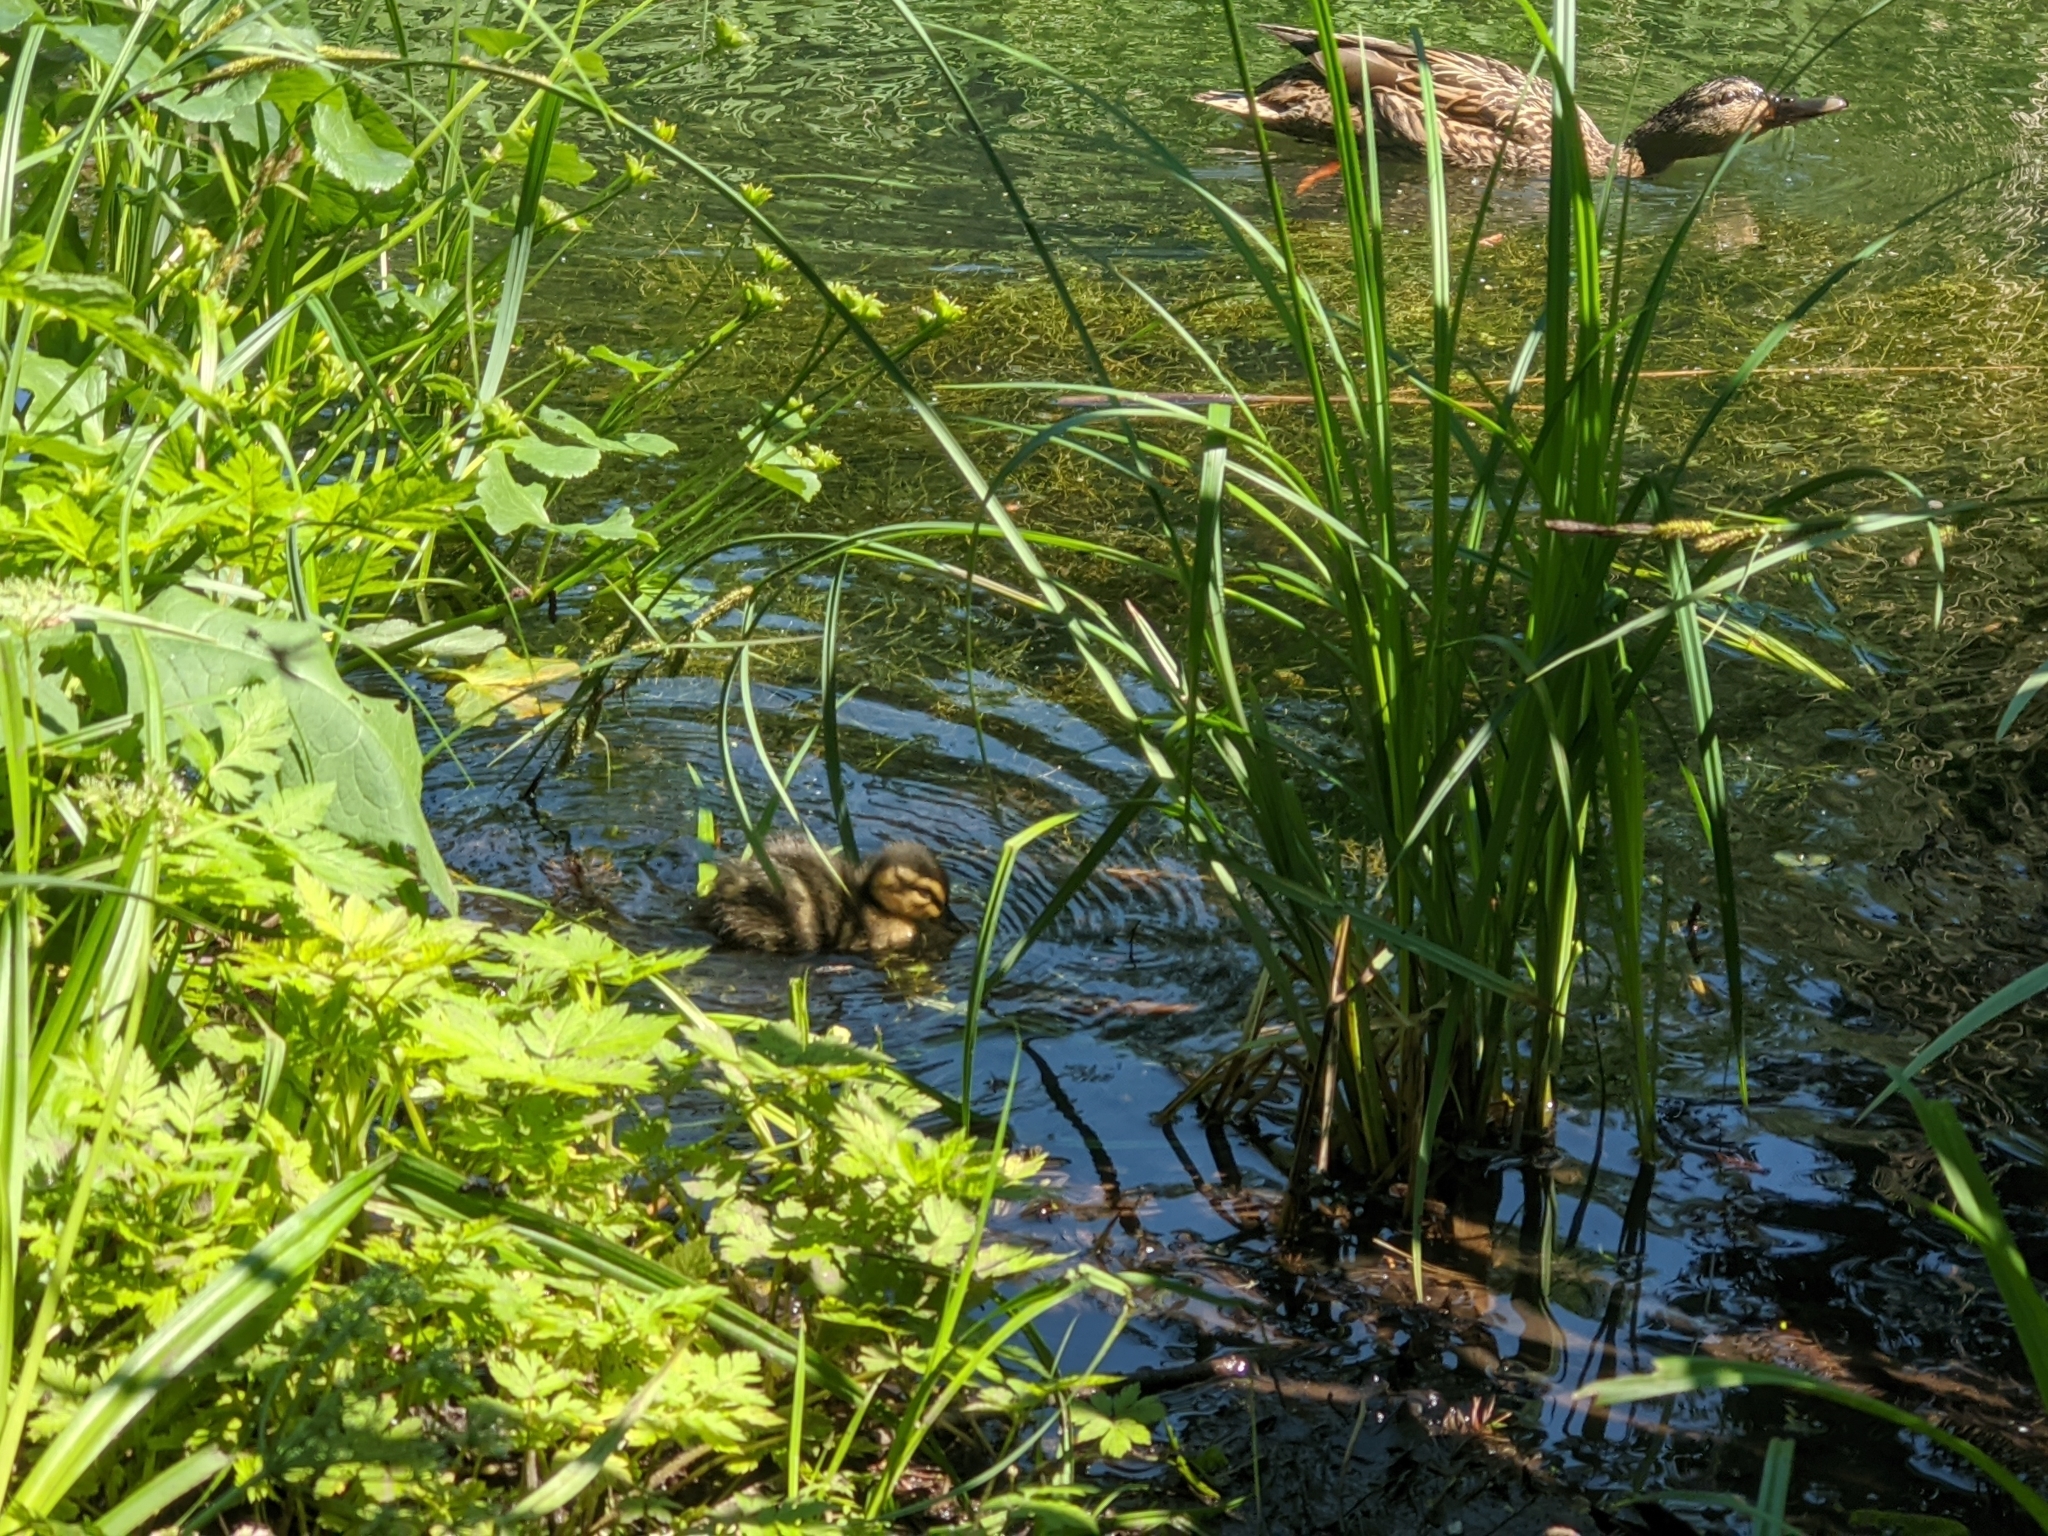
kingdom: Animalia
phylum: Chordata
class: Aves
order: Anseriformes
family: Anatidae
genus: Anas
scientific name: Anas platyrhynchos
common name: Mallard
